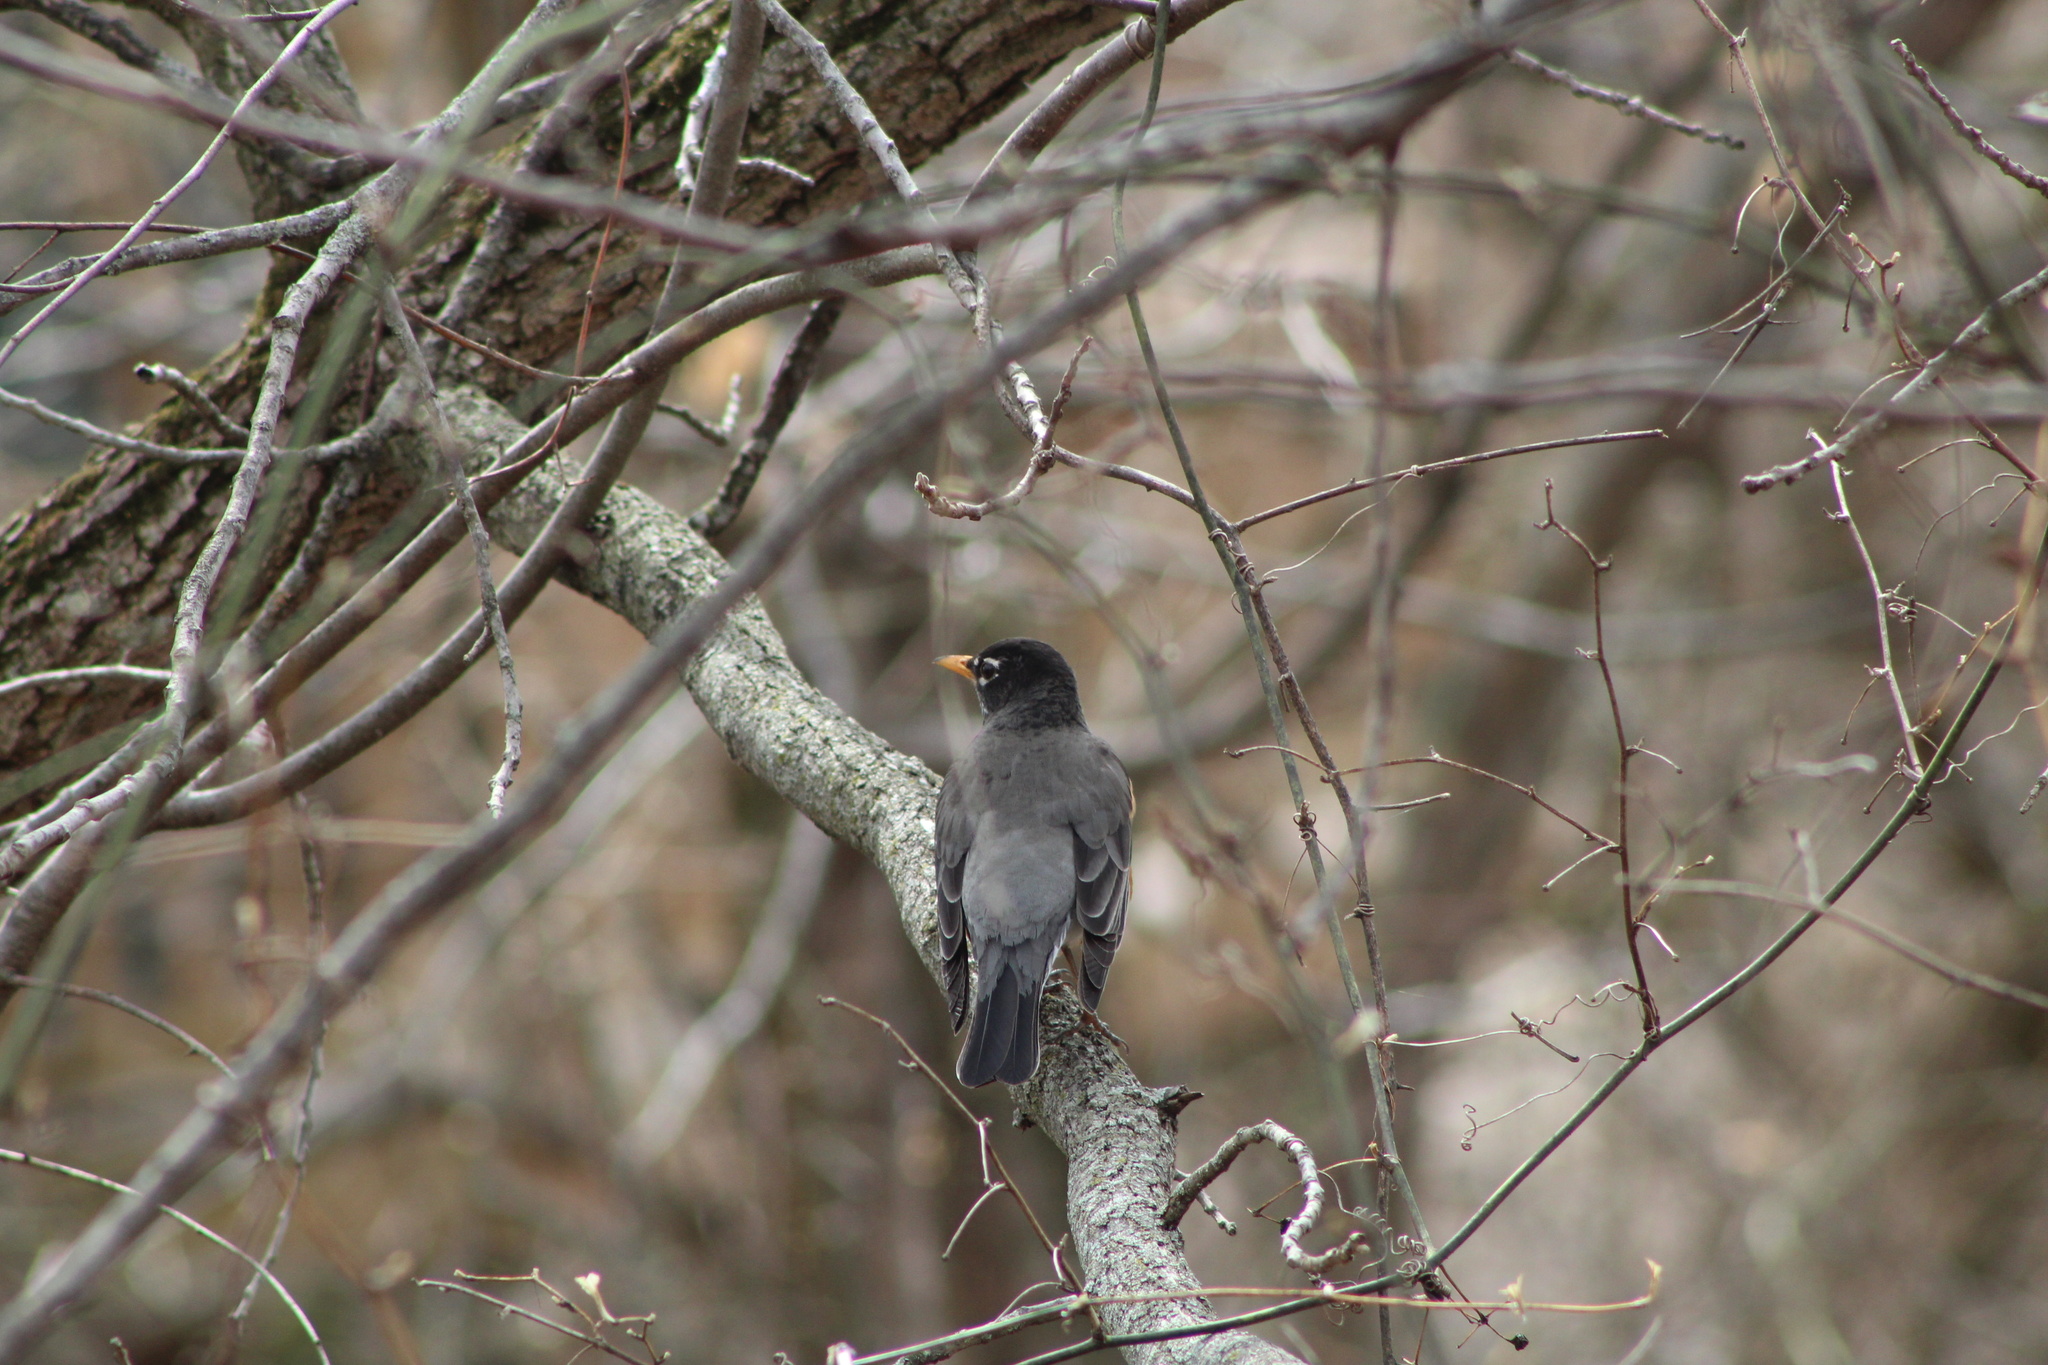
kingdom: Animalia
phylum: Chordata
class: Aves
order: Passeriformes
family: Turdidae
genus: Turdus
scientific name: Turdus migratorius
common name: American robin
